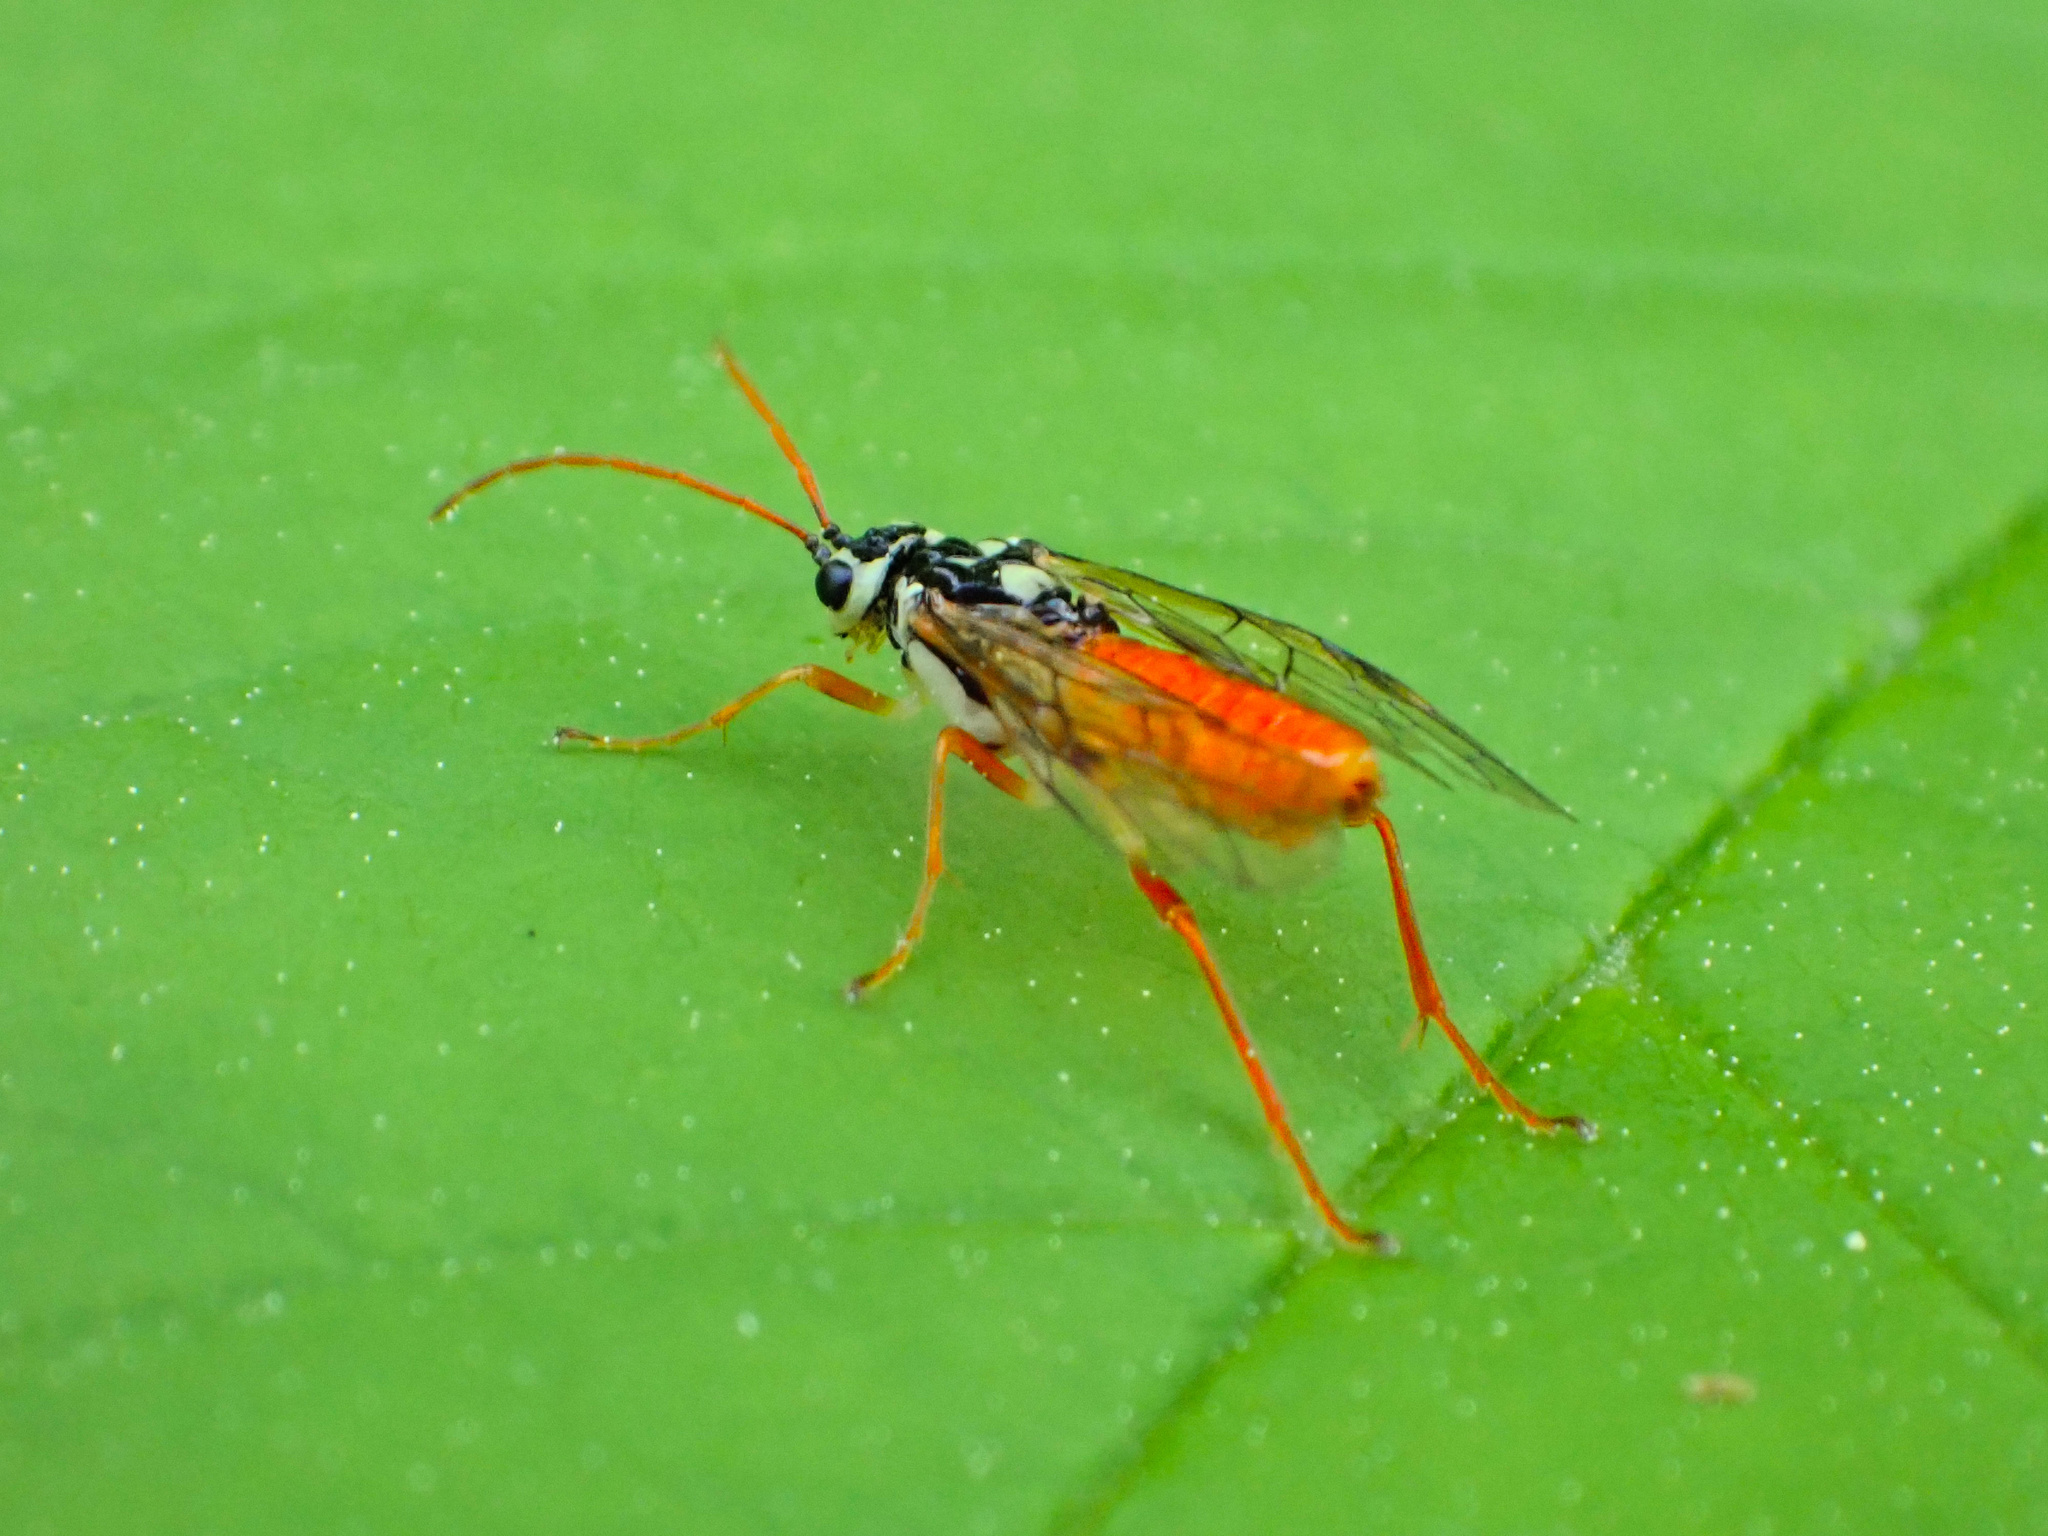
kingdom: Animalia
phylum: Arthropoda
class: Insecta
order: Hymenoptera
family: Tenthredinidae
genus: Aglaostigma
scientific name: Aglaostigma
